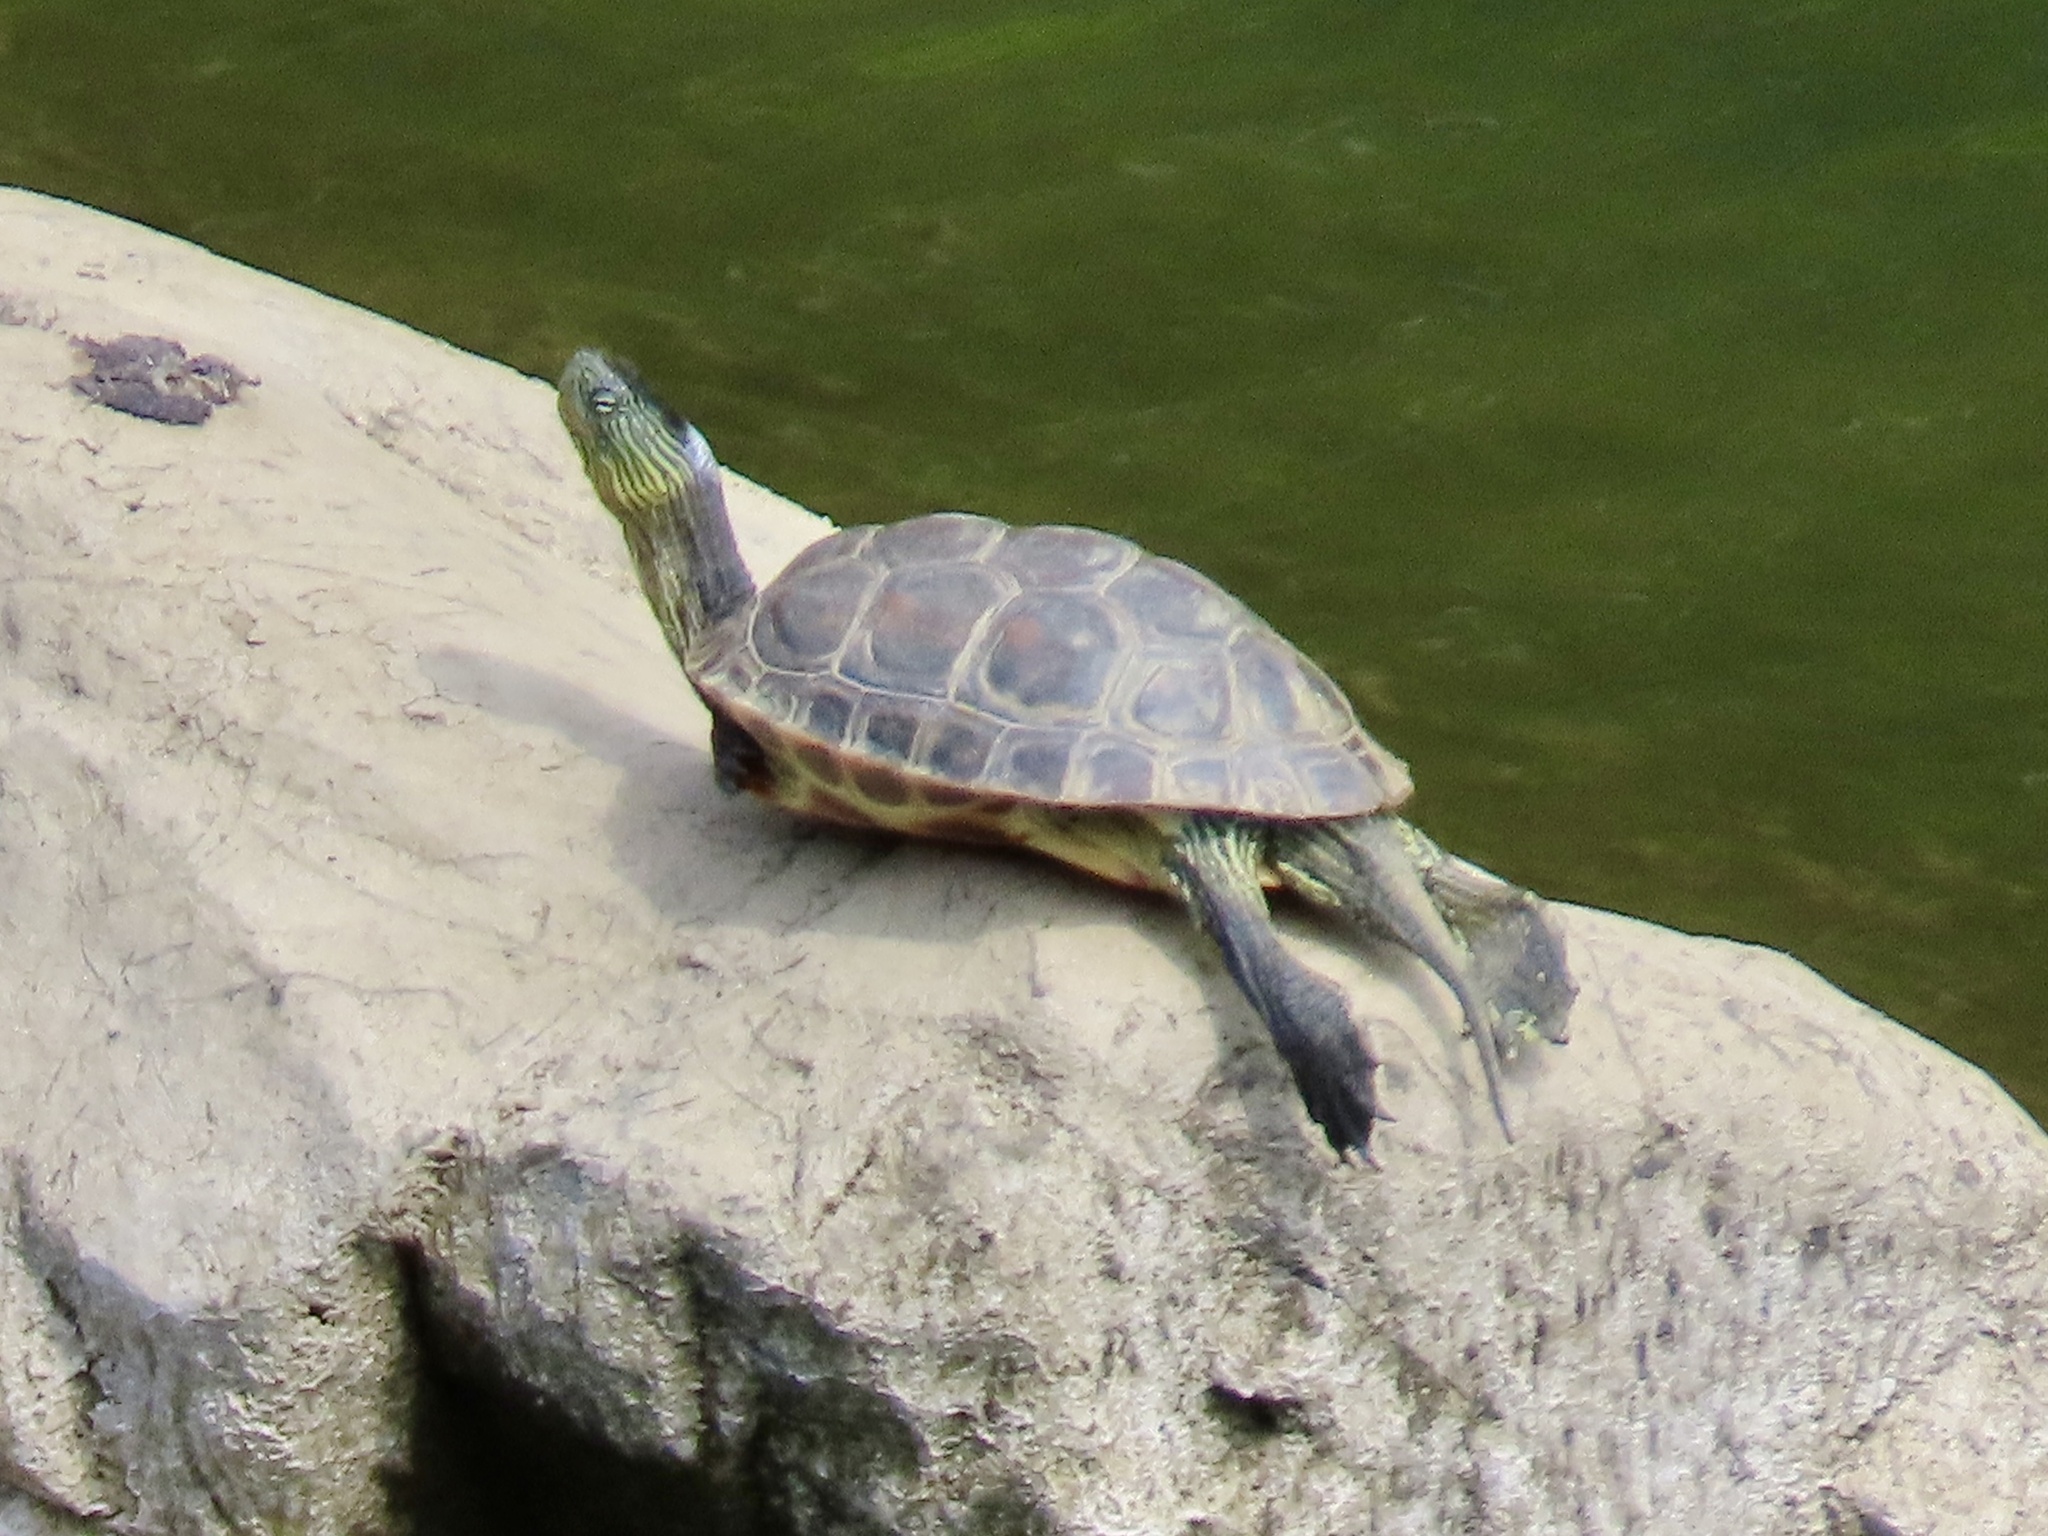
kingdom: Animalia
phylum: Chordata
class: Testudines
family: Geoemydidae
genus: Mauremys
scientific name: Mauremys sinensis
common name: Chinese stripe-necked turtle
